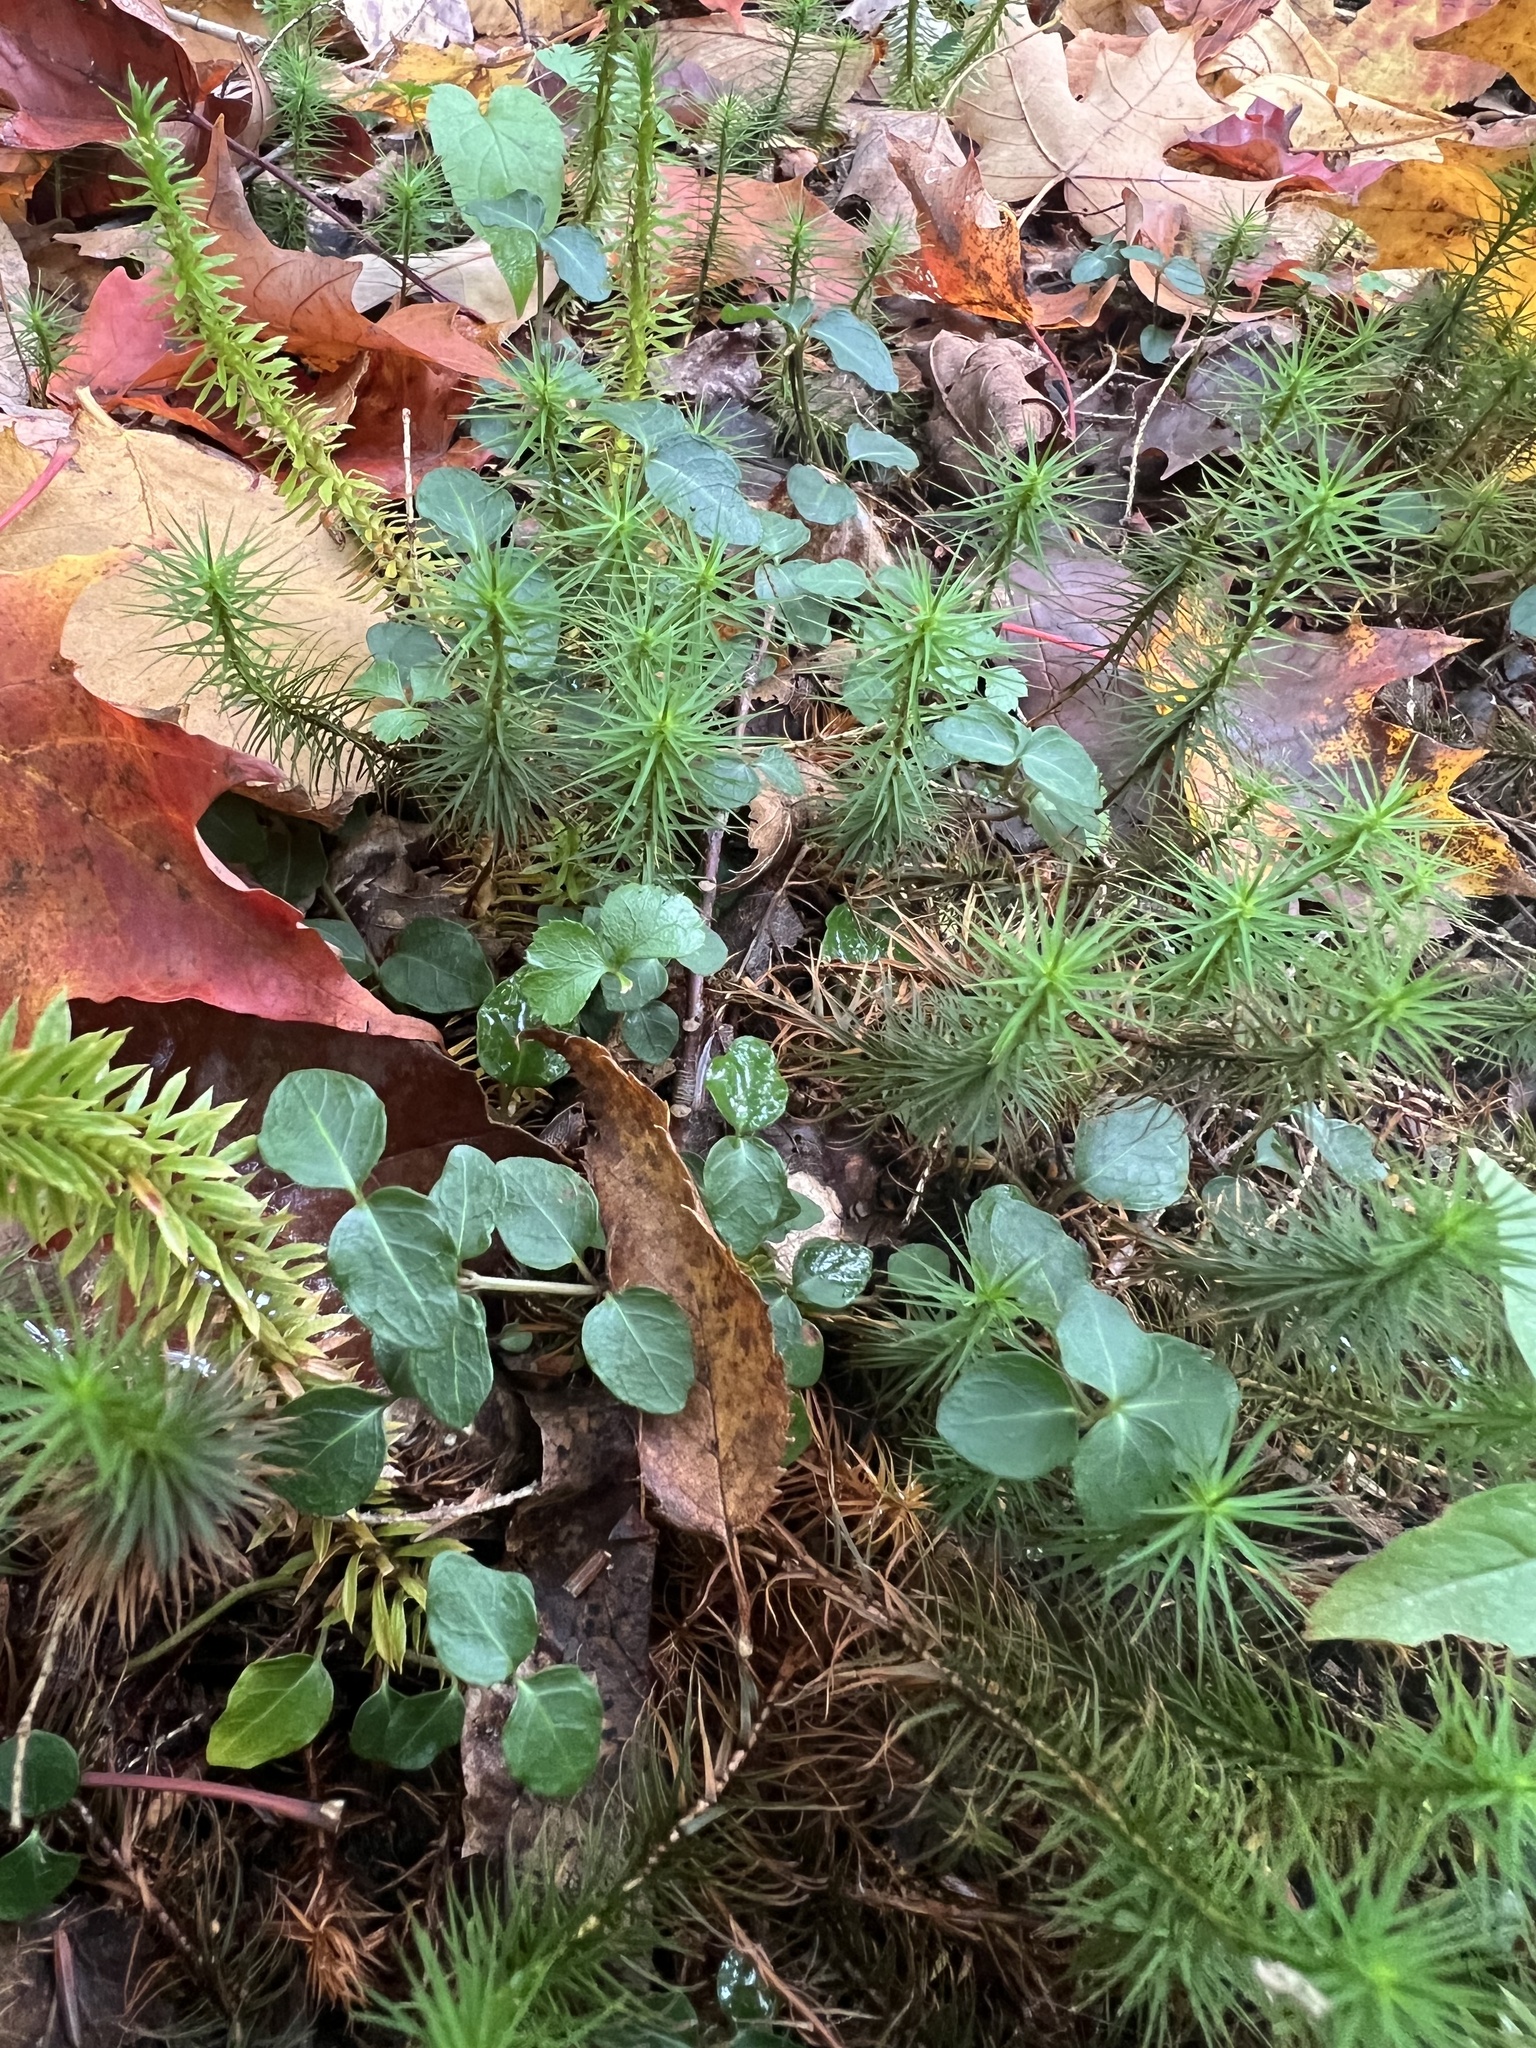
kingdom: Plantae
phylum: Tracheophyta
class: Magnoliopsida
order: Gentianales
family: Rubiaceae
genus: Mitchella
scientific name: Mitchella repens
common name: Partridge-berry
